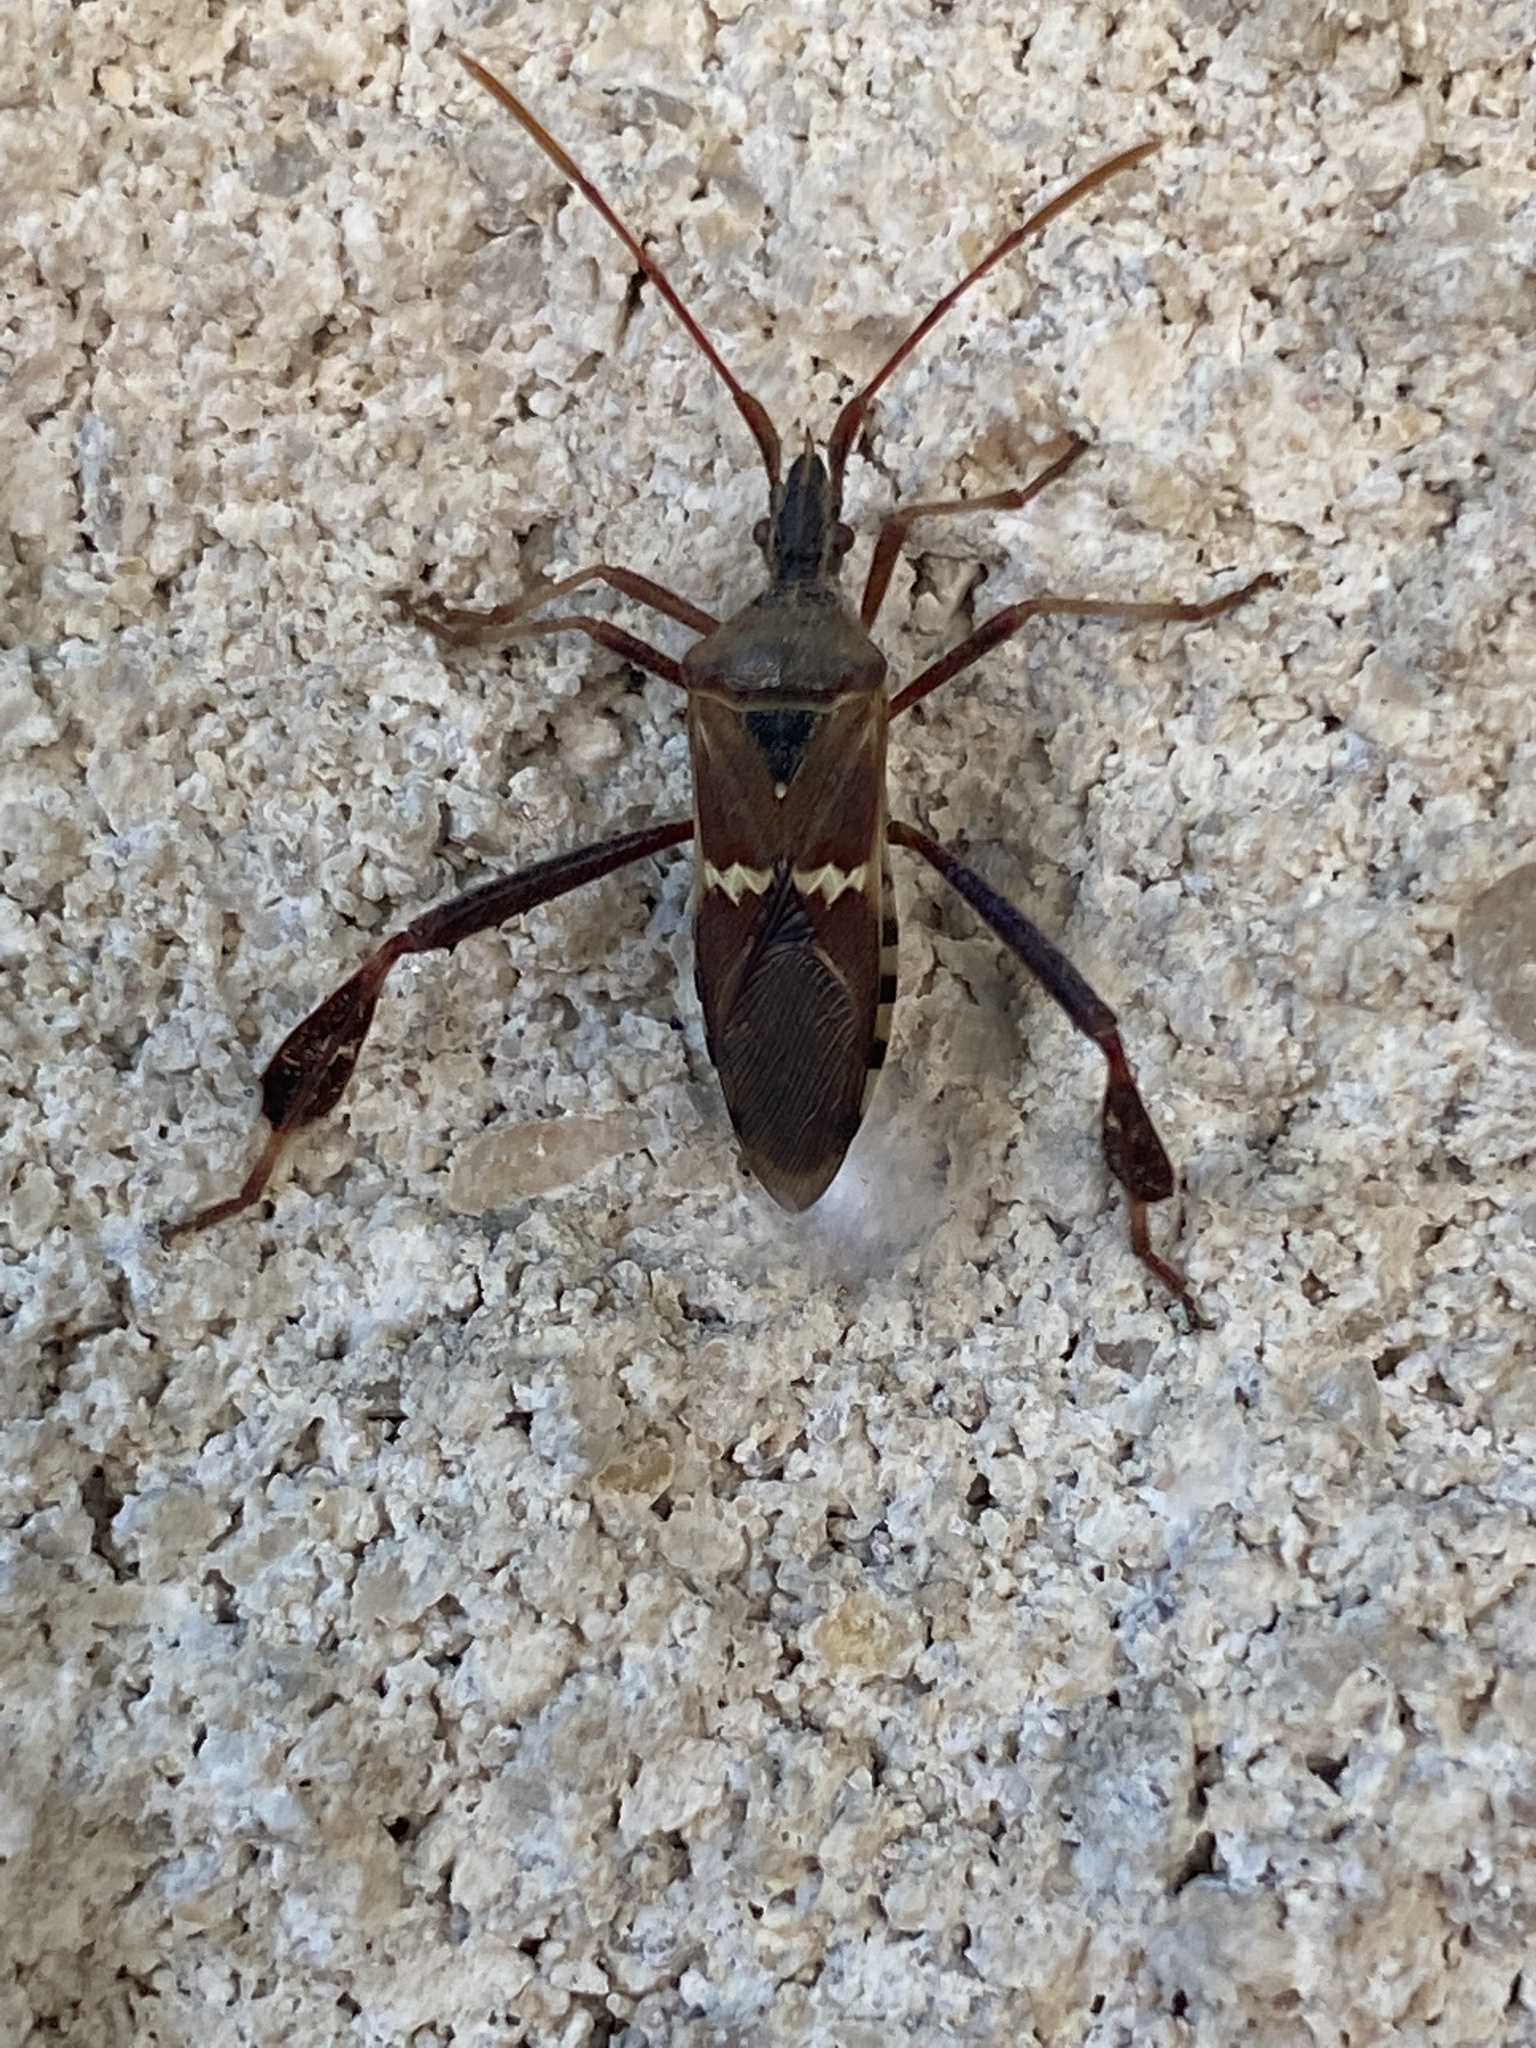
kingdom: Animalia
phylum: Arthropoda
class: Insecta
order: Hemiptera
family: Coreidae
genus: Leptoglossus
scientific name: Leptoglossus clypealis
